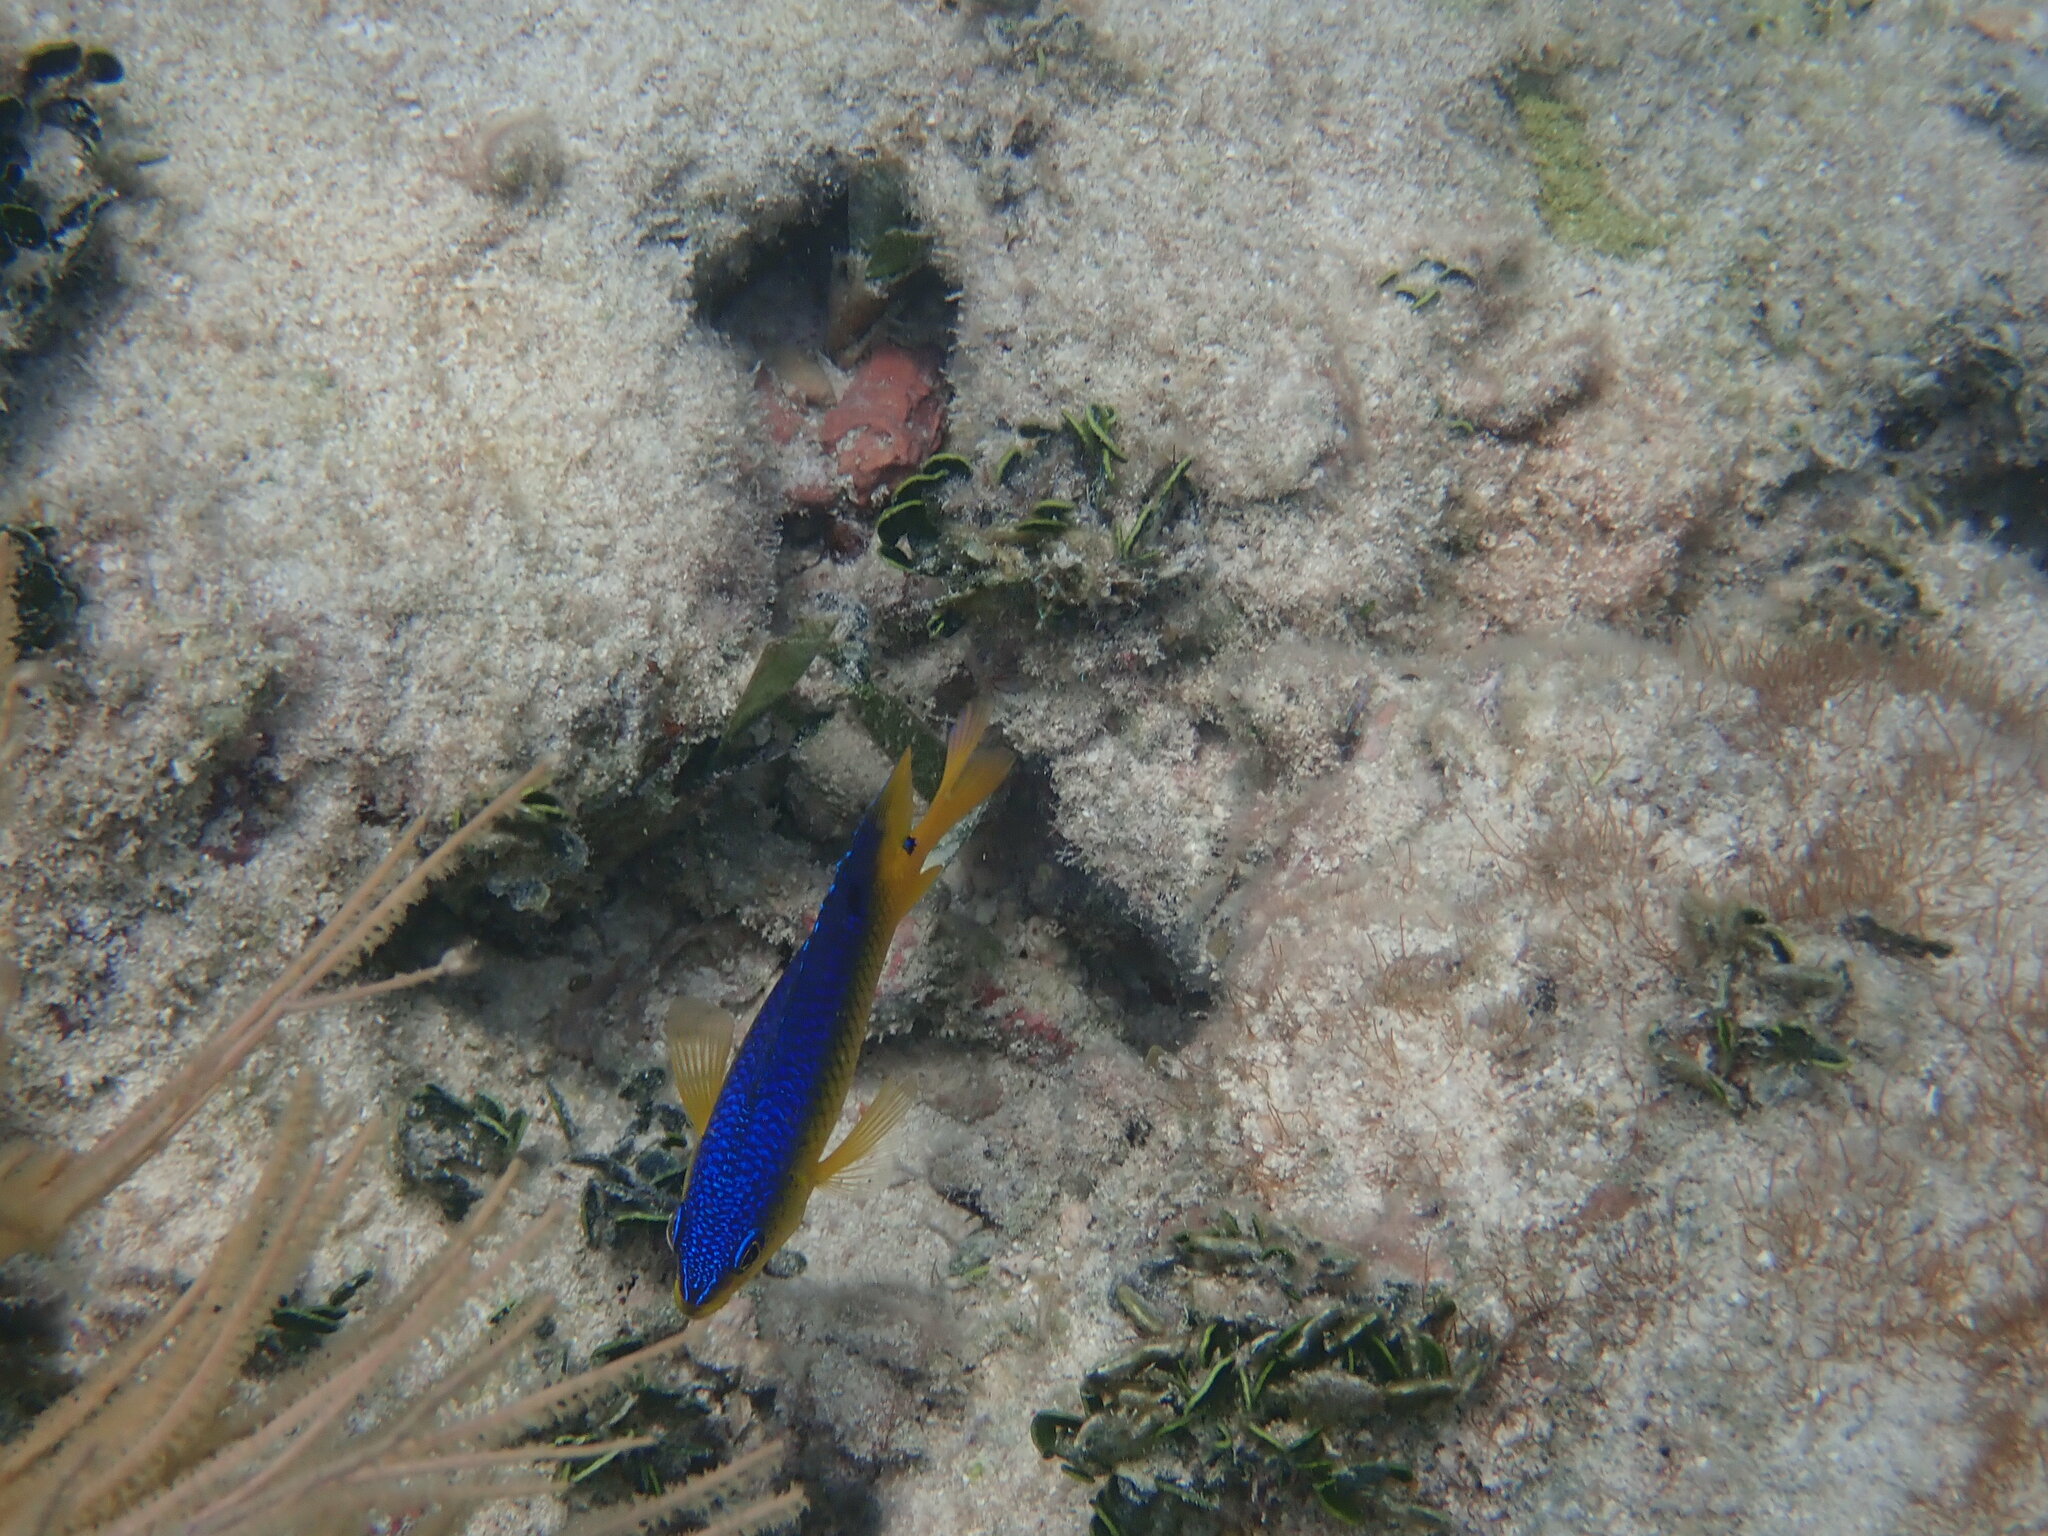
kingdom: Animalia
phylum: Chordata
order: Perciformes
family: Pomacentridae
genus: Stegastes
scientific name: Stegastes xanthurus
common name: Cocoa damselfish
